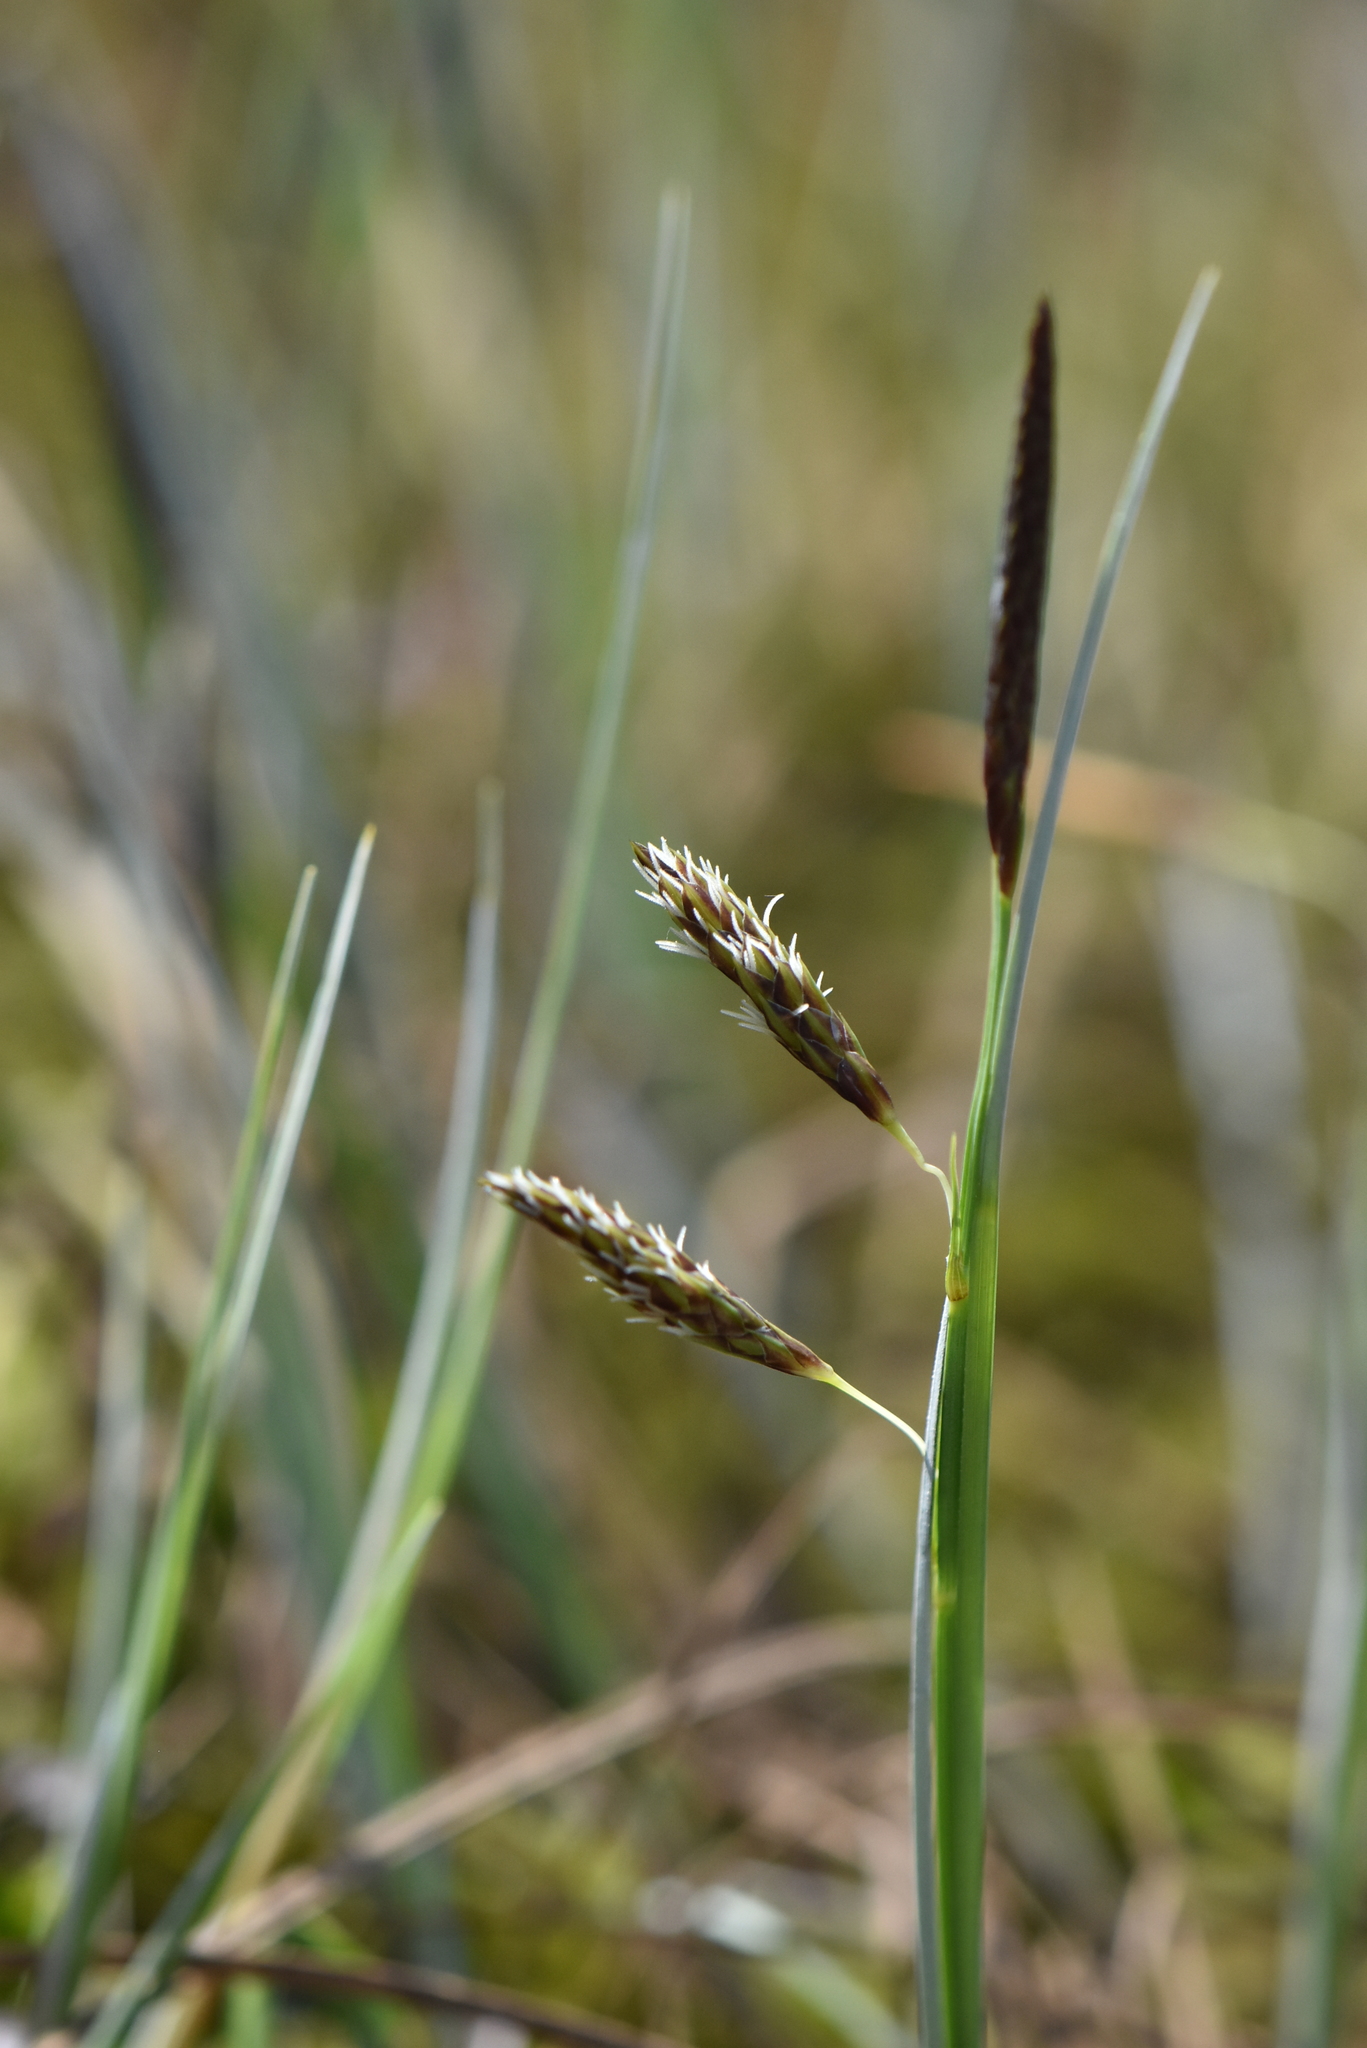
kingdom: Plantae
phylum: Tracheophyta
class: Liliopsida
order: Poales
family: Cyperaceae
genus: Carex
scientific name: Carex limosa
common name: Bog sedge
